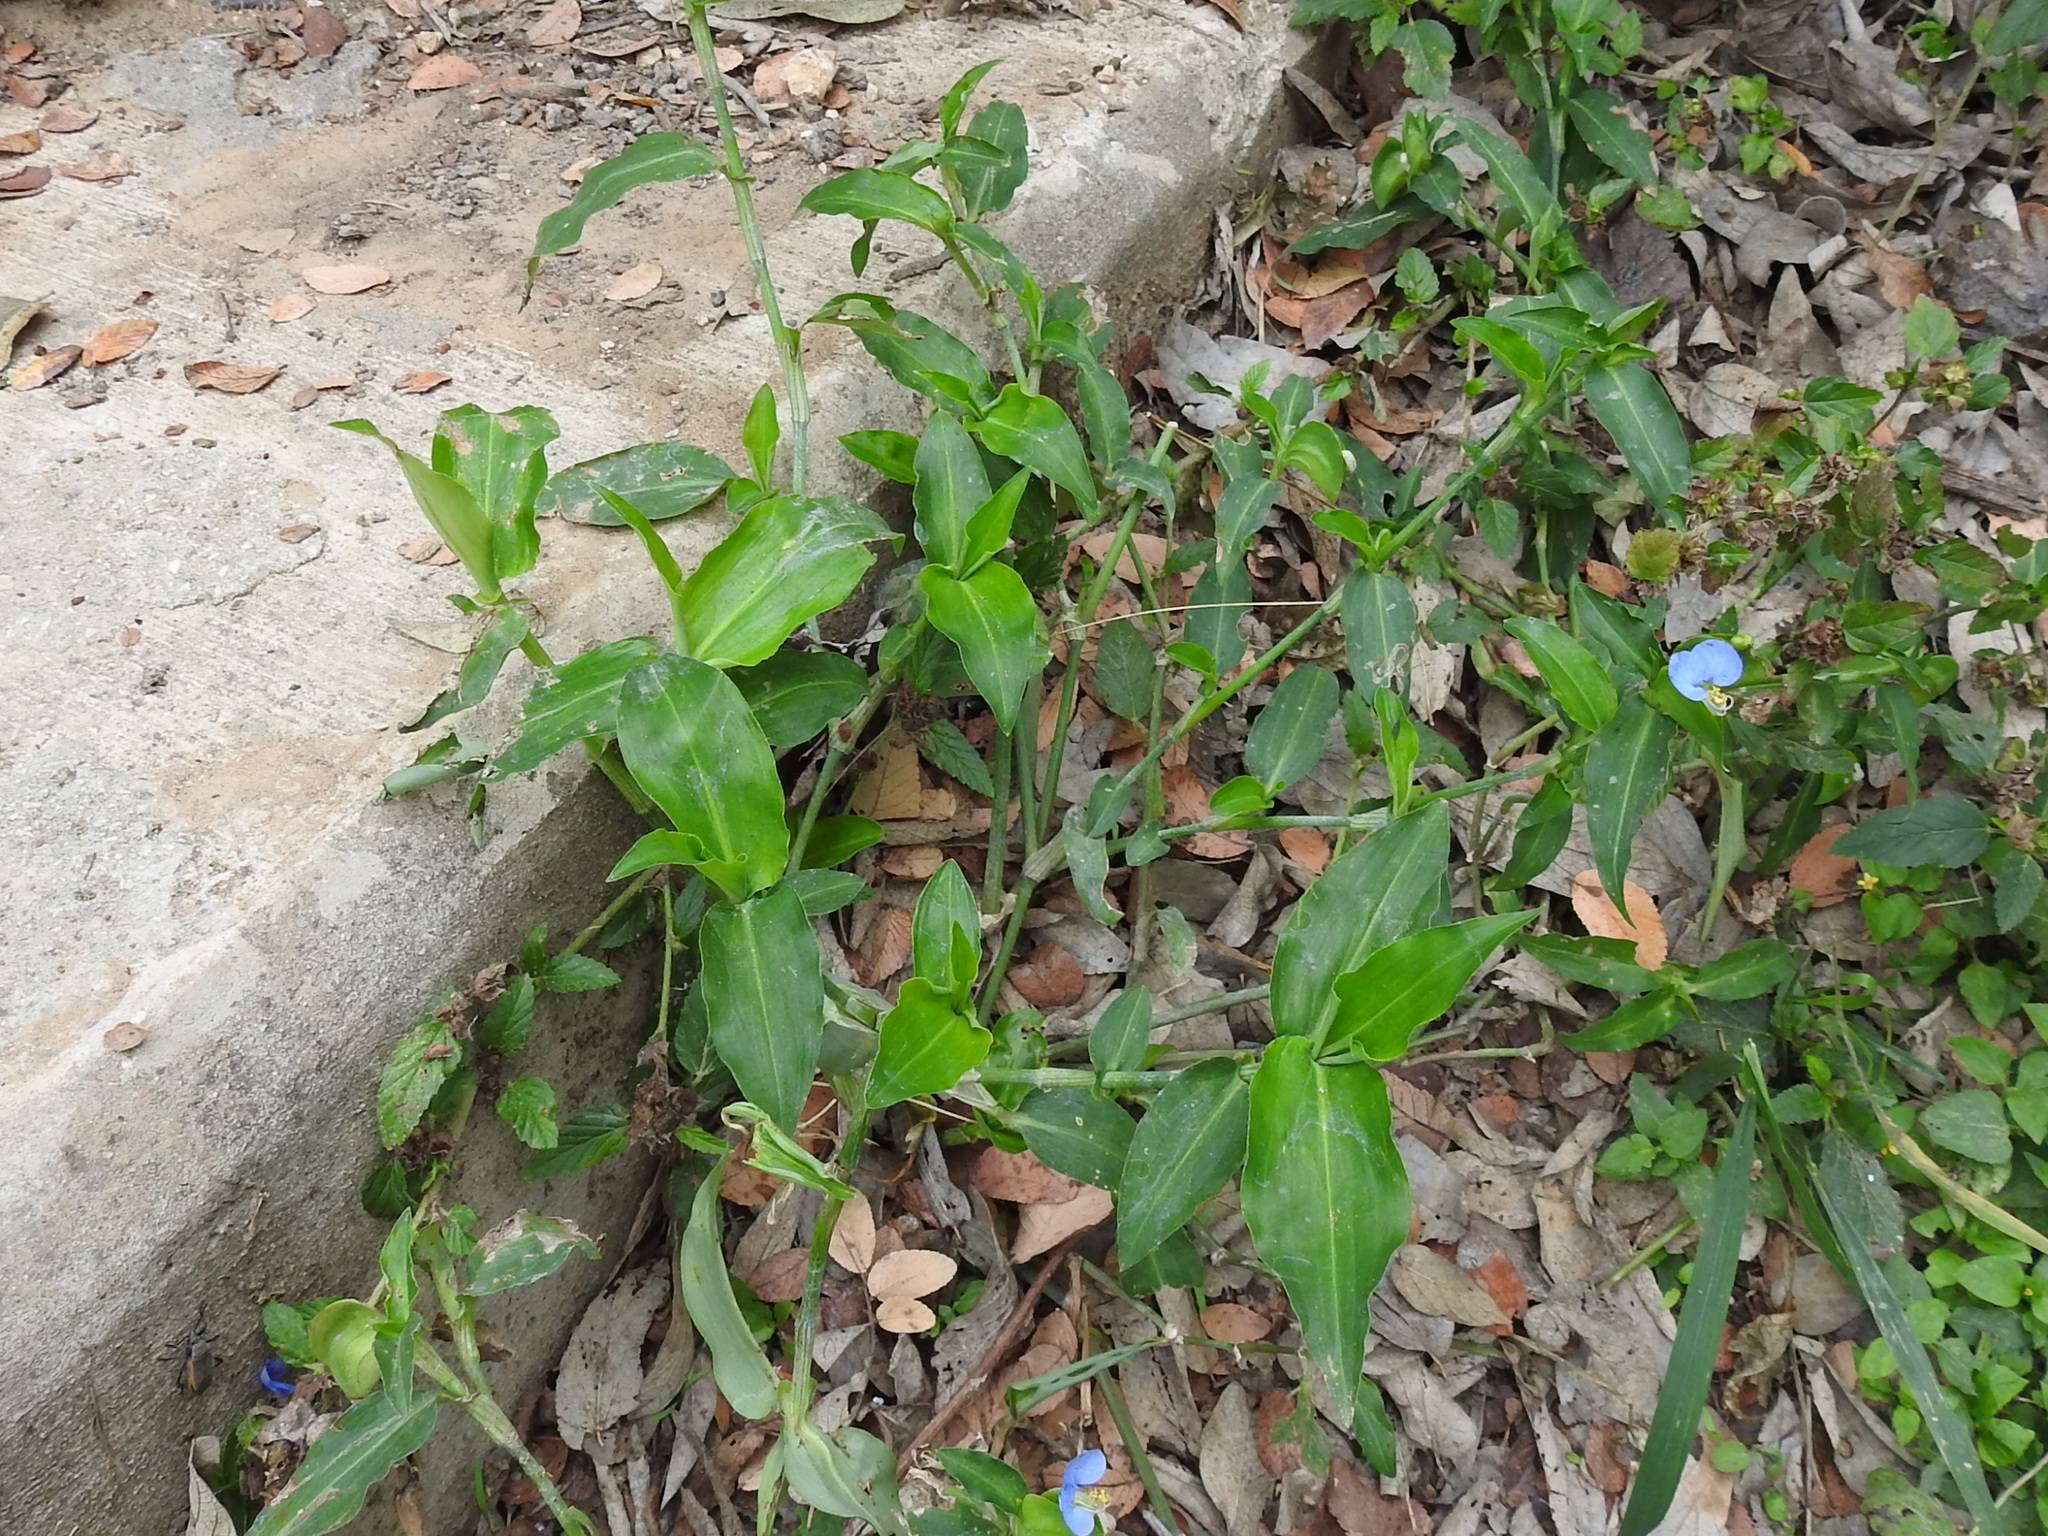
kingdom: Plantae
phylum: Tracheophyta
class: Liliopsida
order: Commelinales
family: Commelinaceae
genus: Commelina
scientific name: Commelina erecta
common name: Blousel blommetjie
